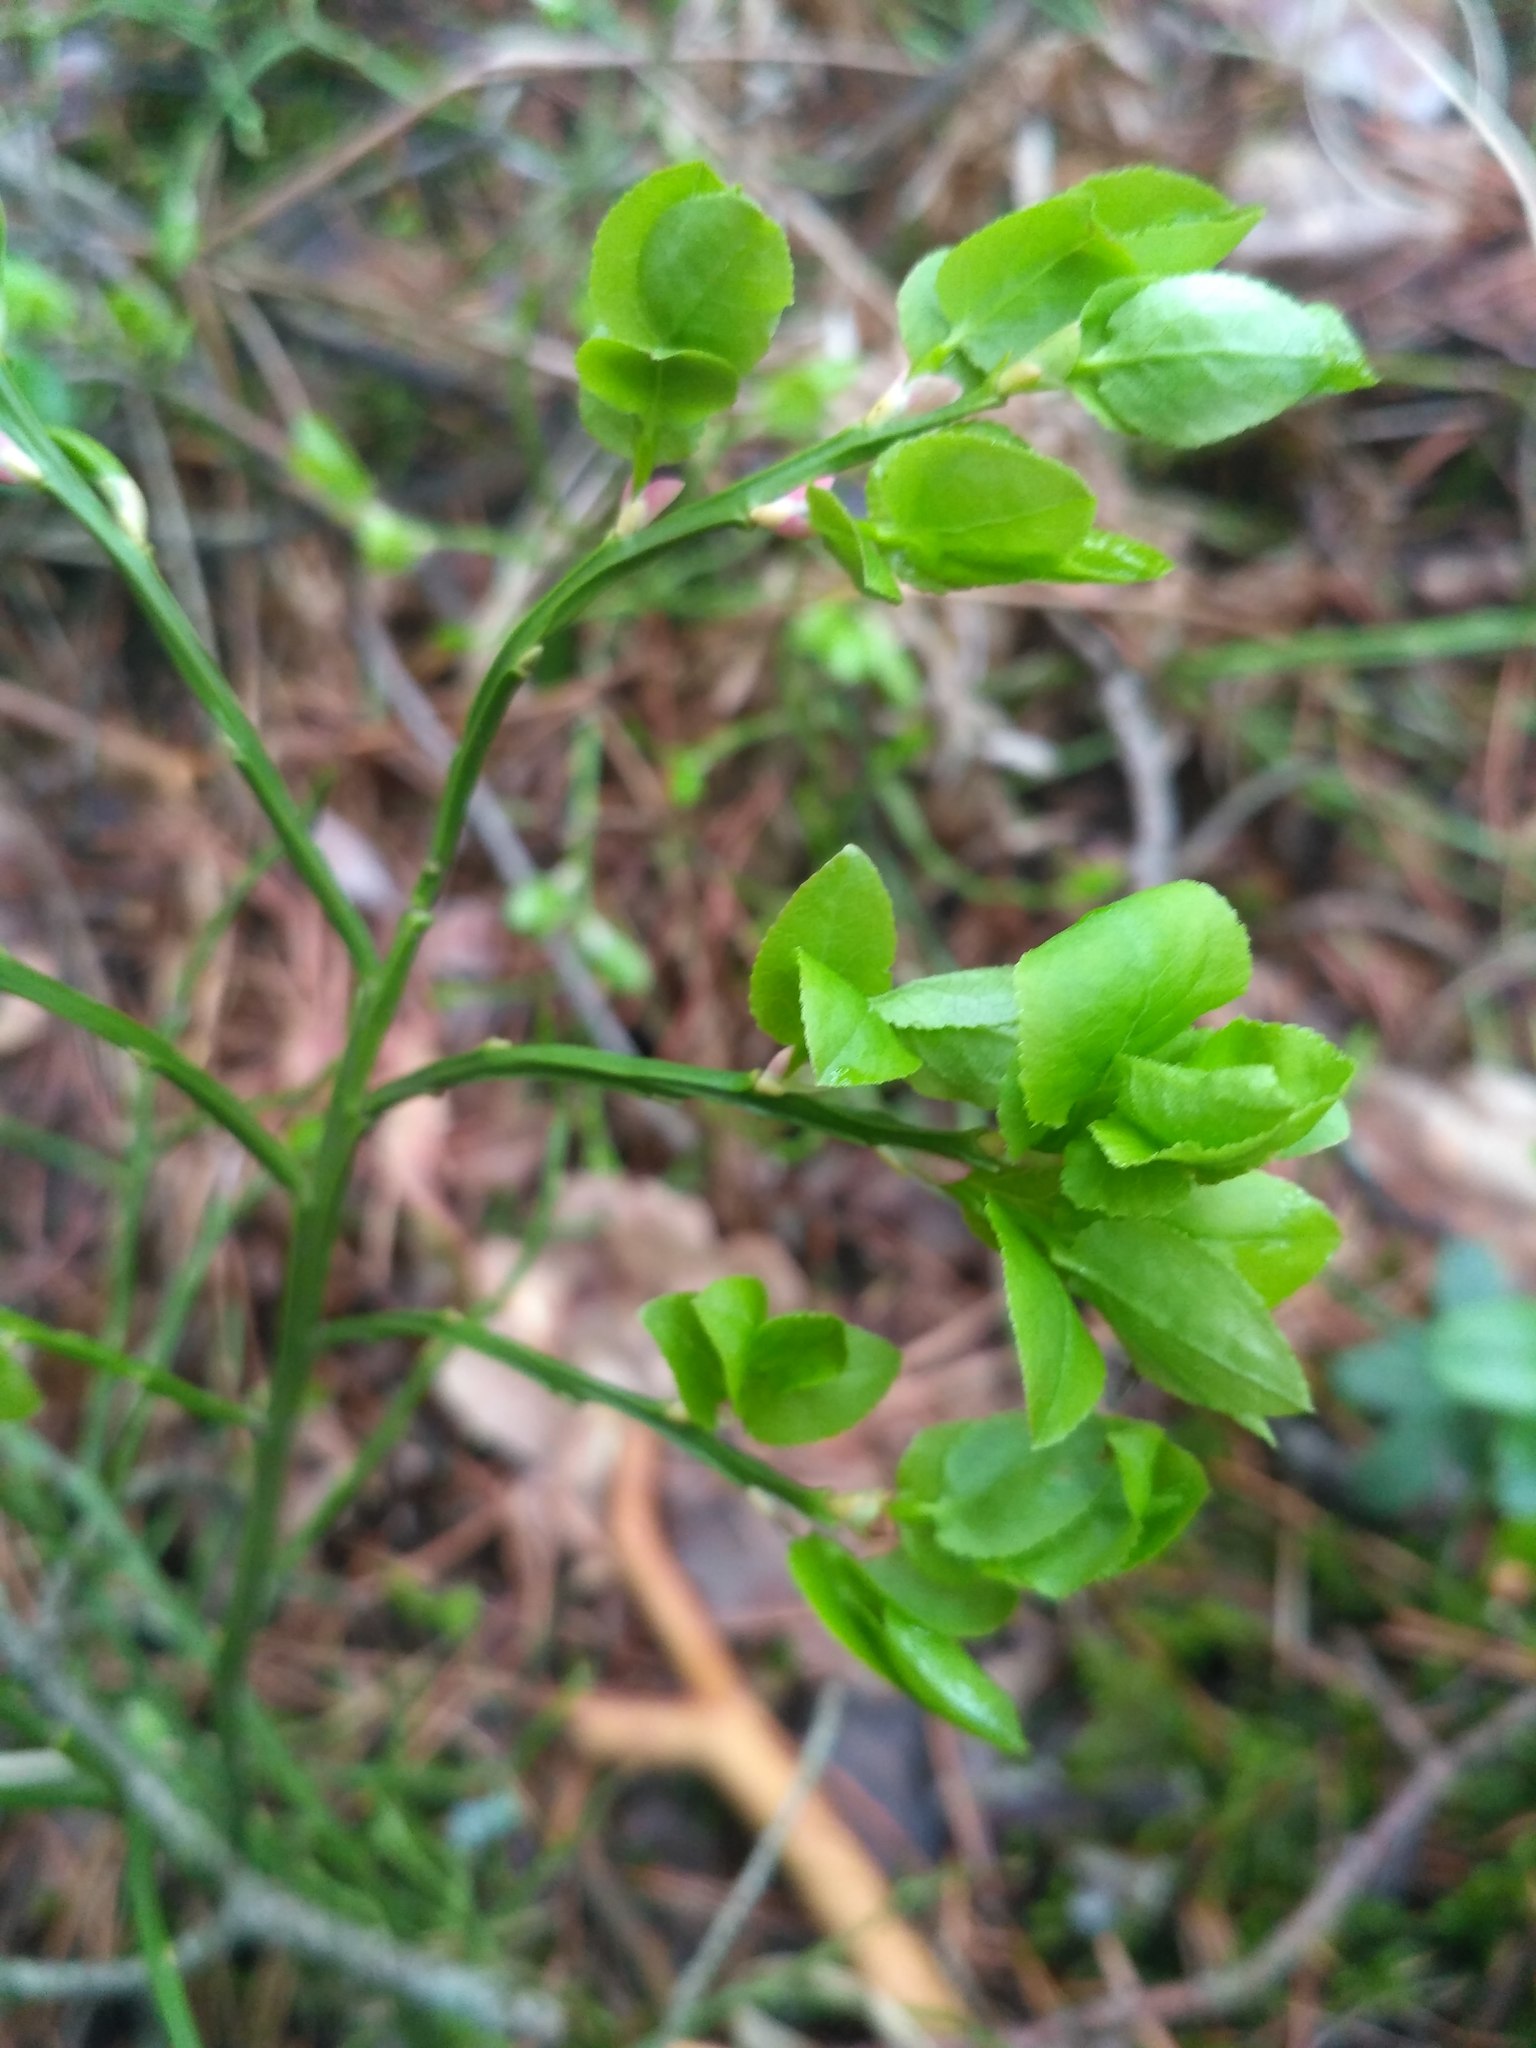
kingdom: Plantae
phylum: Tracheophyta
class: Magnoliopsida
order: Ericales
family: Ericaceae
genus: Vaccinium
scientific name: Vaccinium myrtillus
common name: Bilberry
